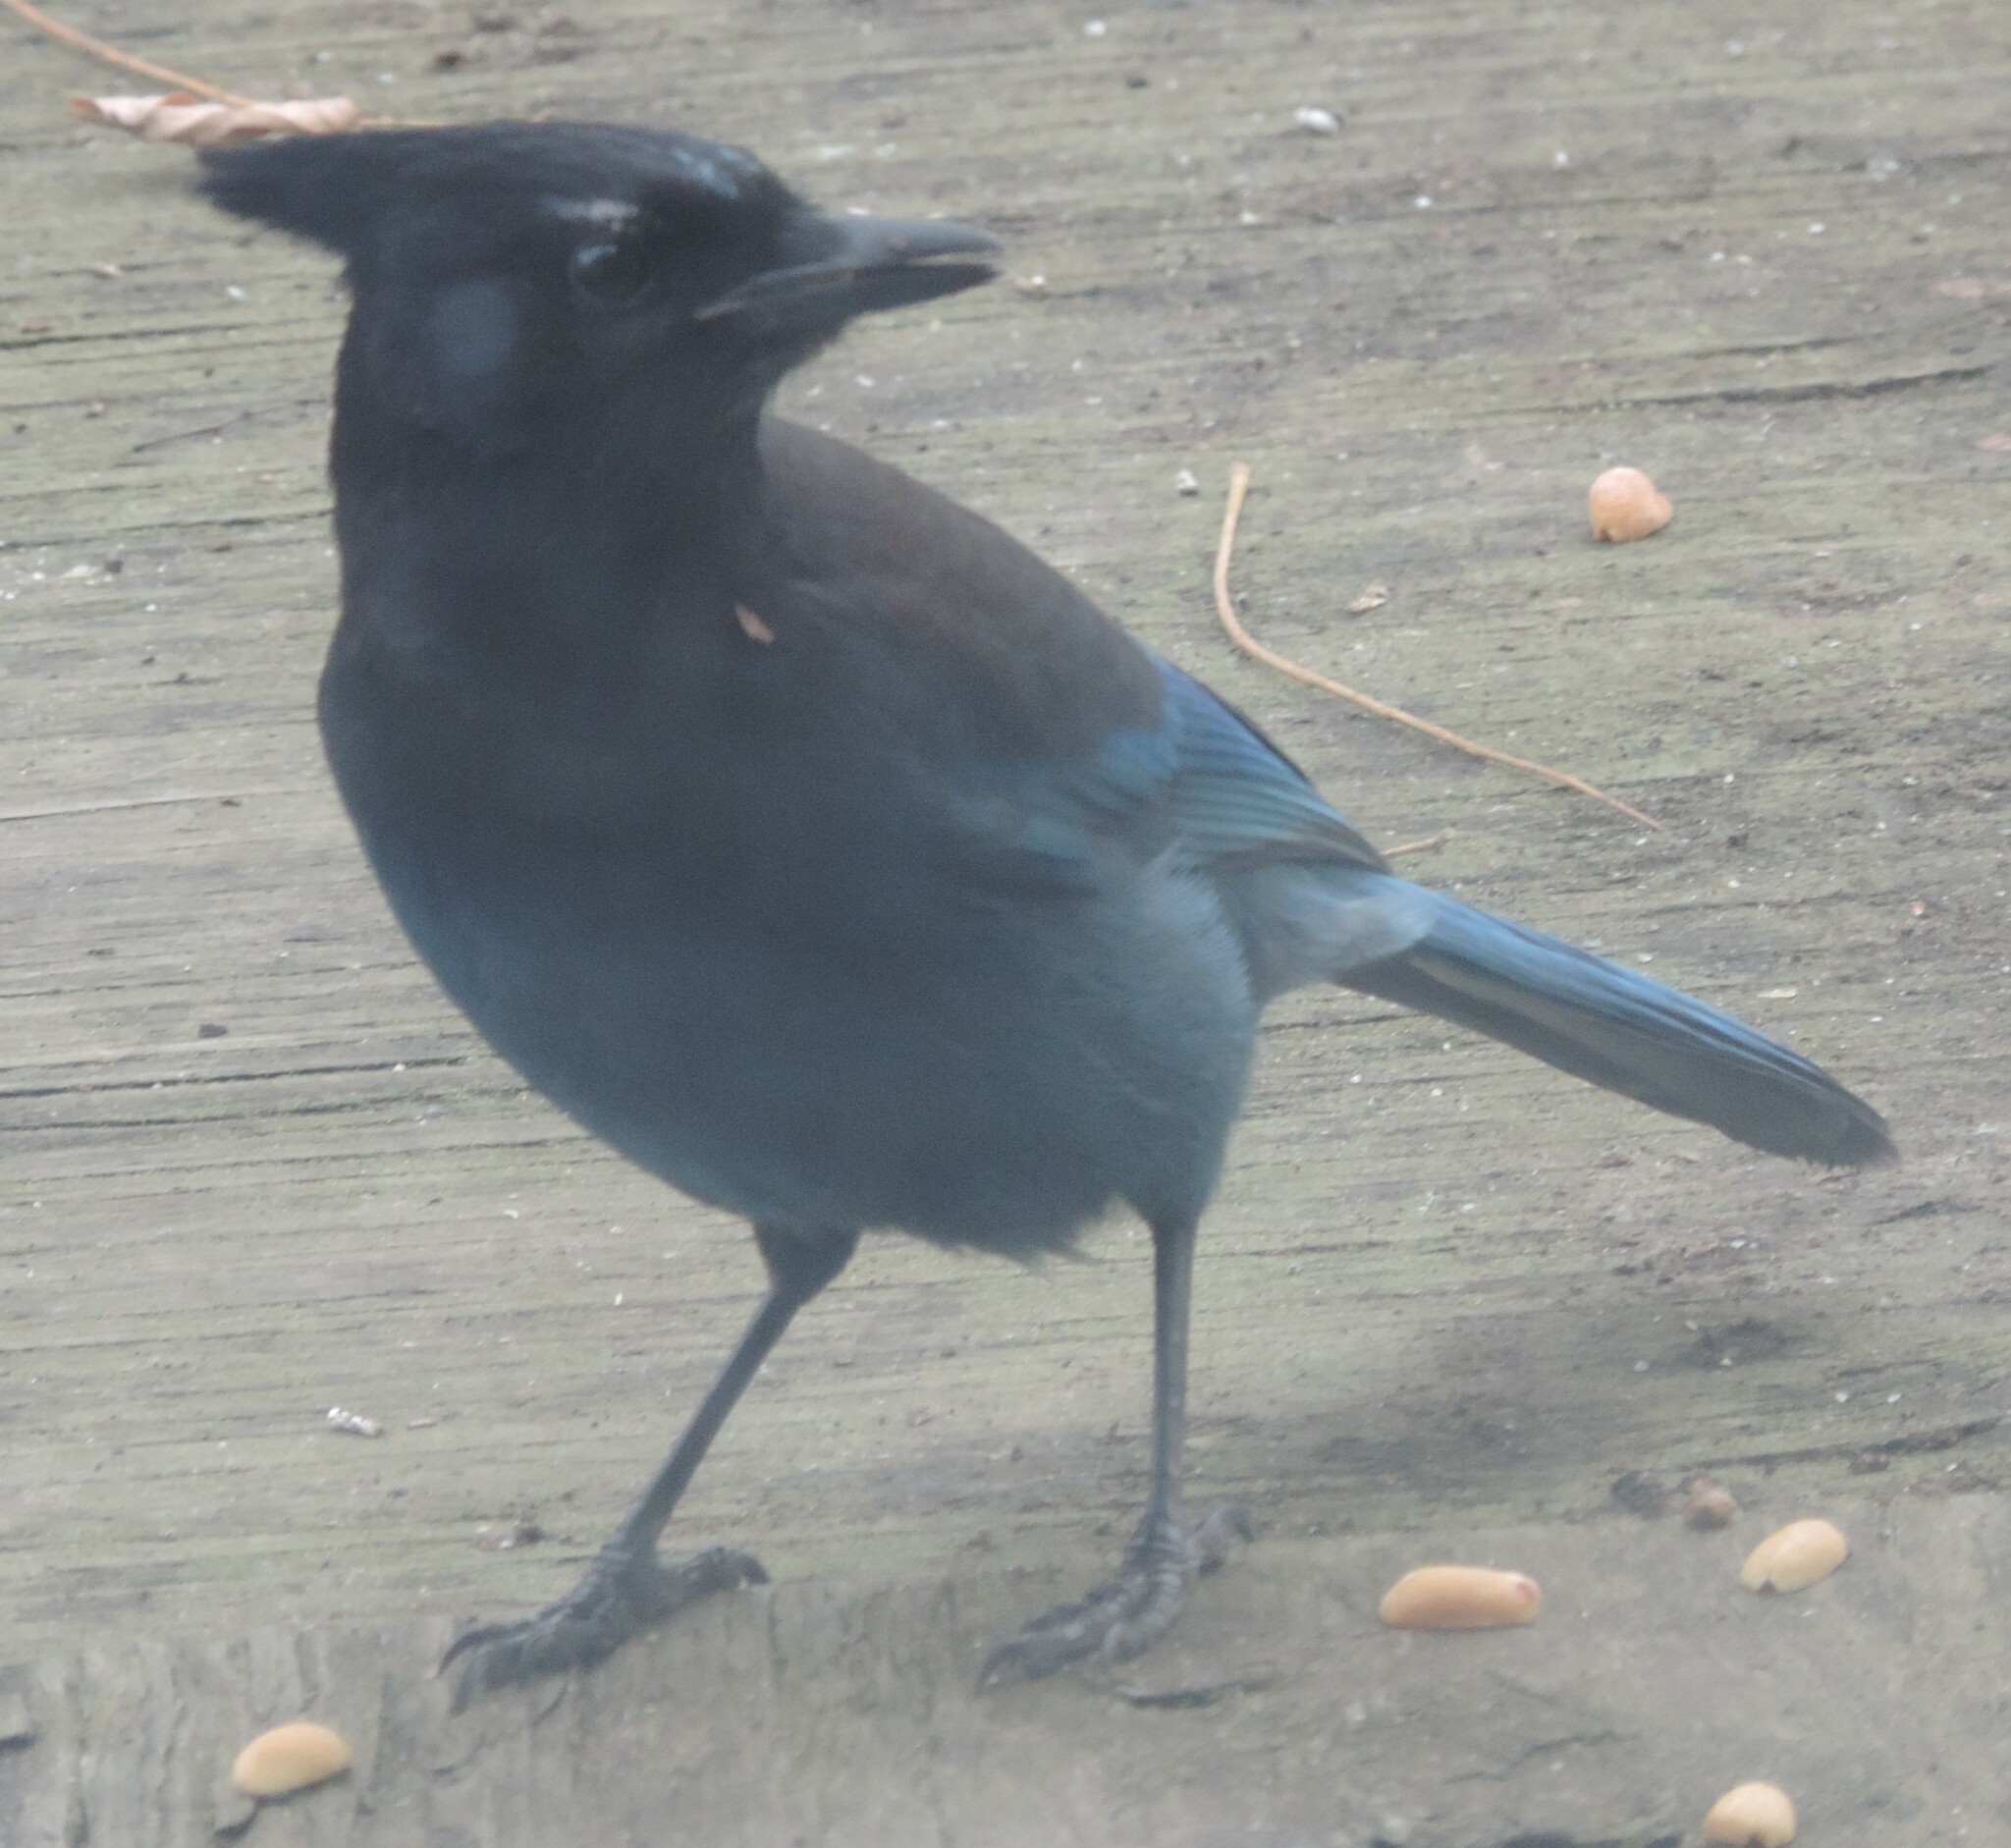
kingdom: Animalia
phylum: Chordata
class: Aves
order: Passeriformes
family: Corvidae
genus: Cyanocitta
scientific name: Cyanocitta stelleri
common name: Steller's jay
